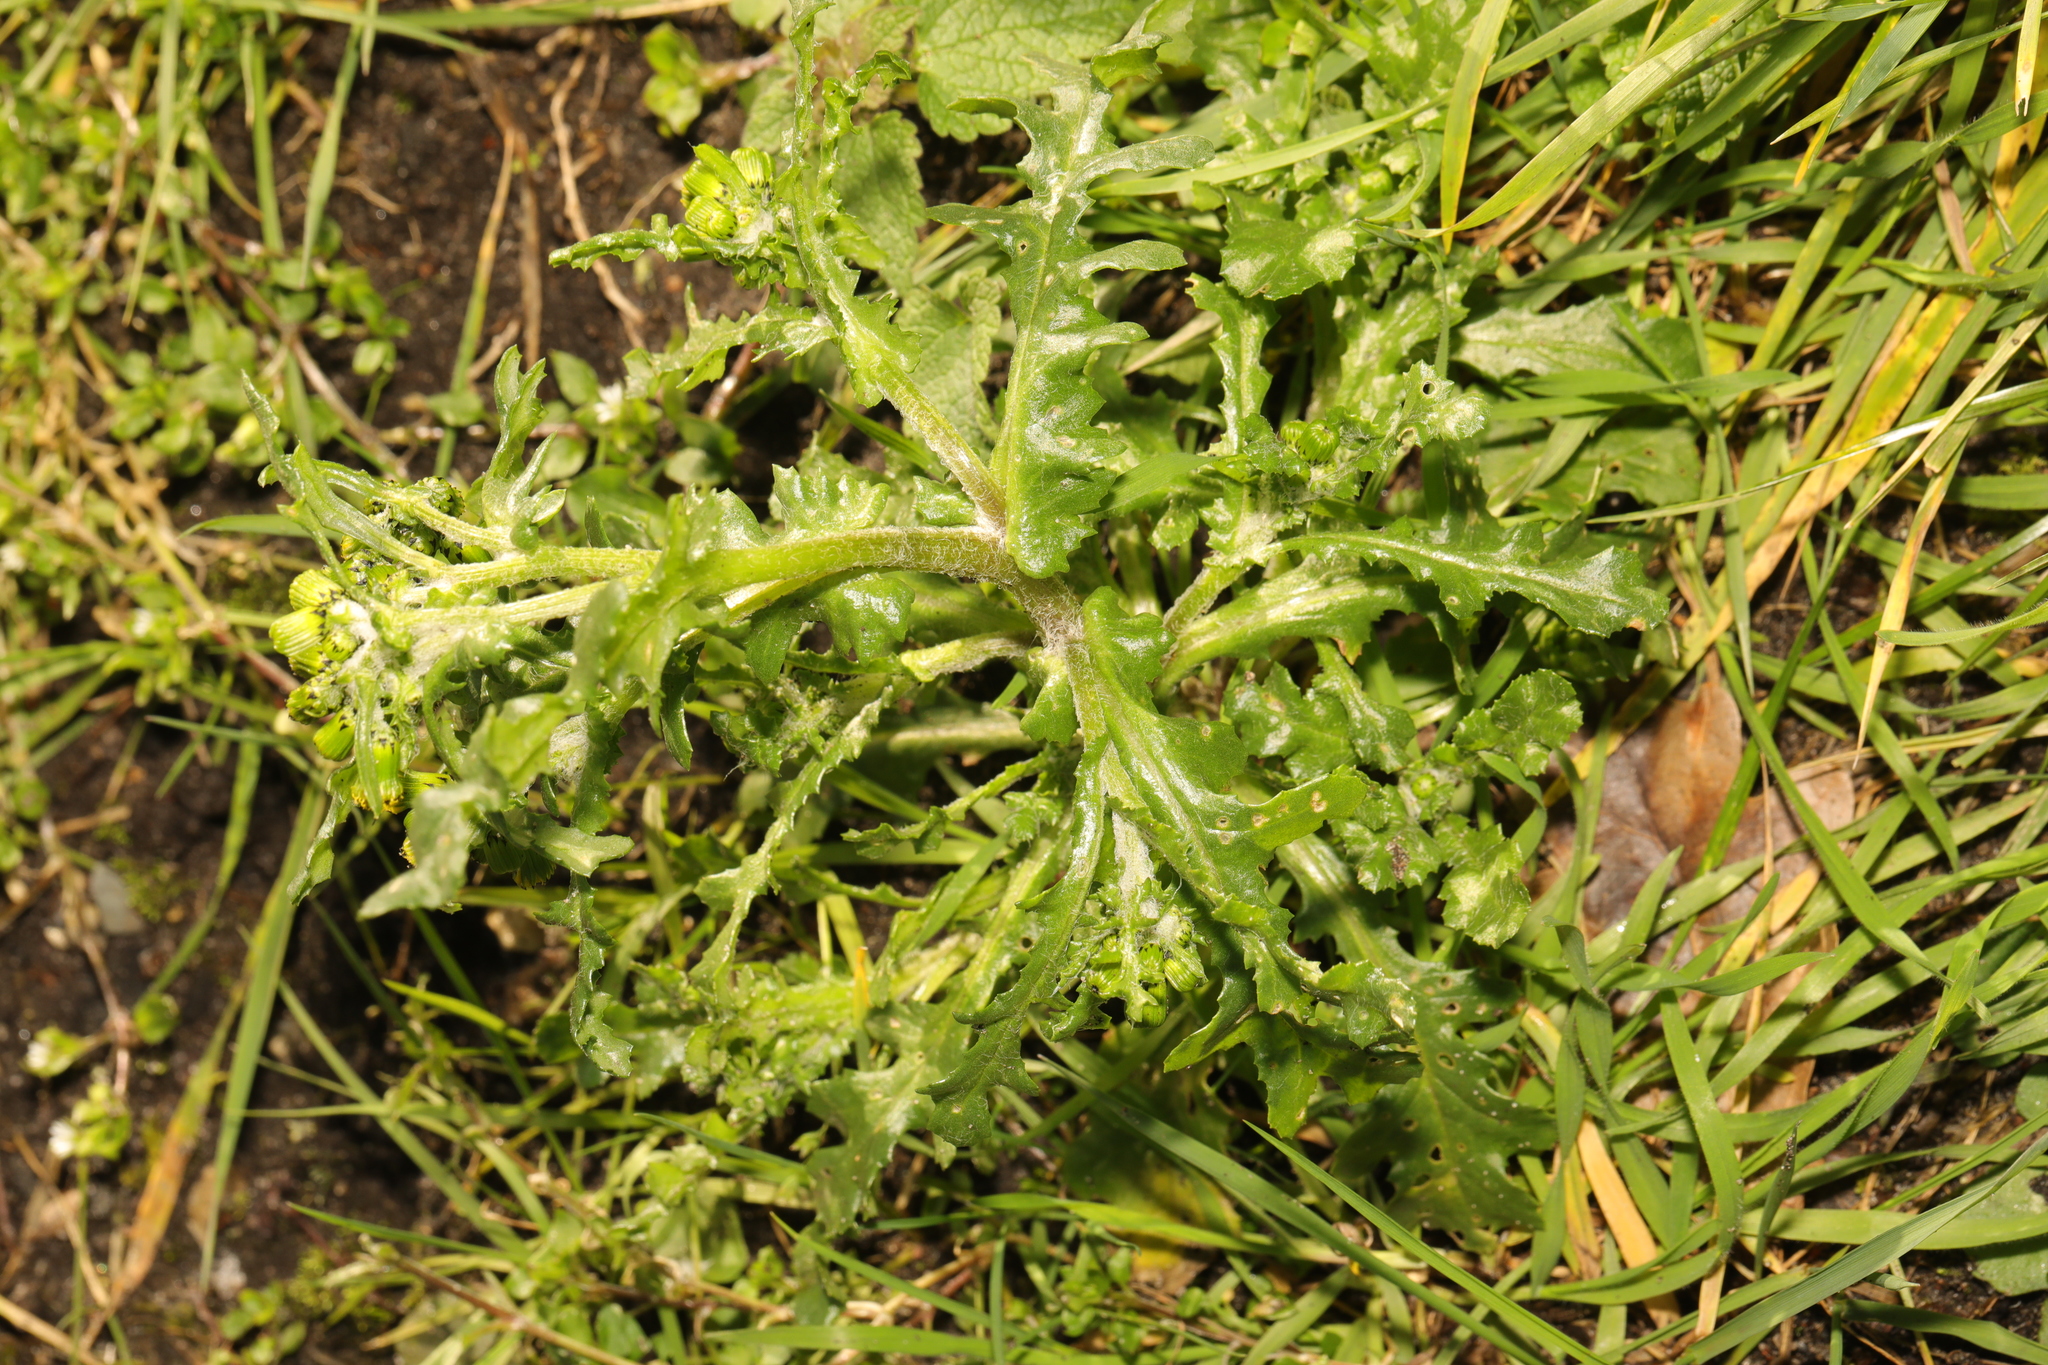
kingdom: Plantae
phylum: Tracheophyta
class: Magnoliopsida
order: Asterales
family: Asteraceae
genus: Senecio
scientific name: Senecio vulgaris
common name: Old-man-in-the-spring
